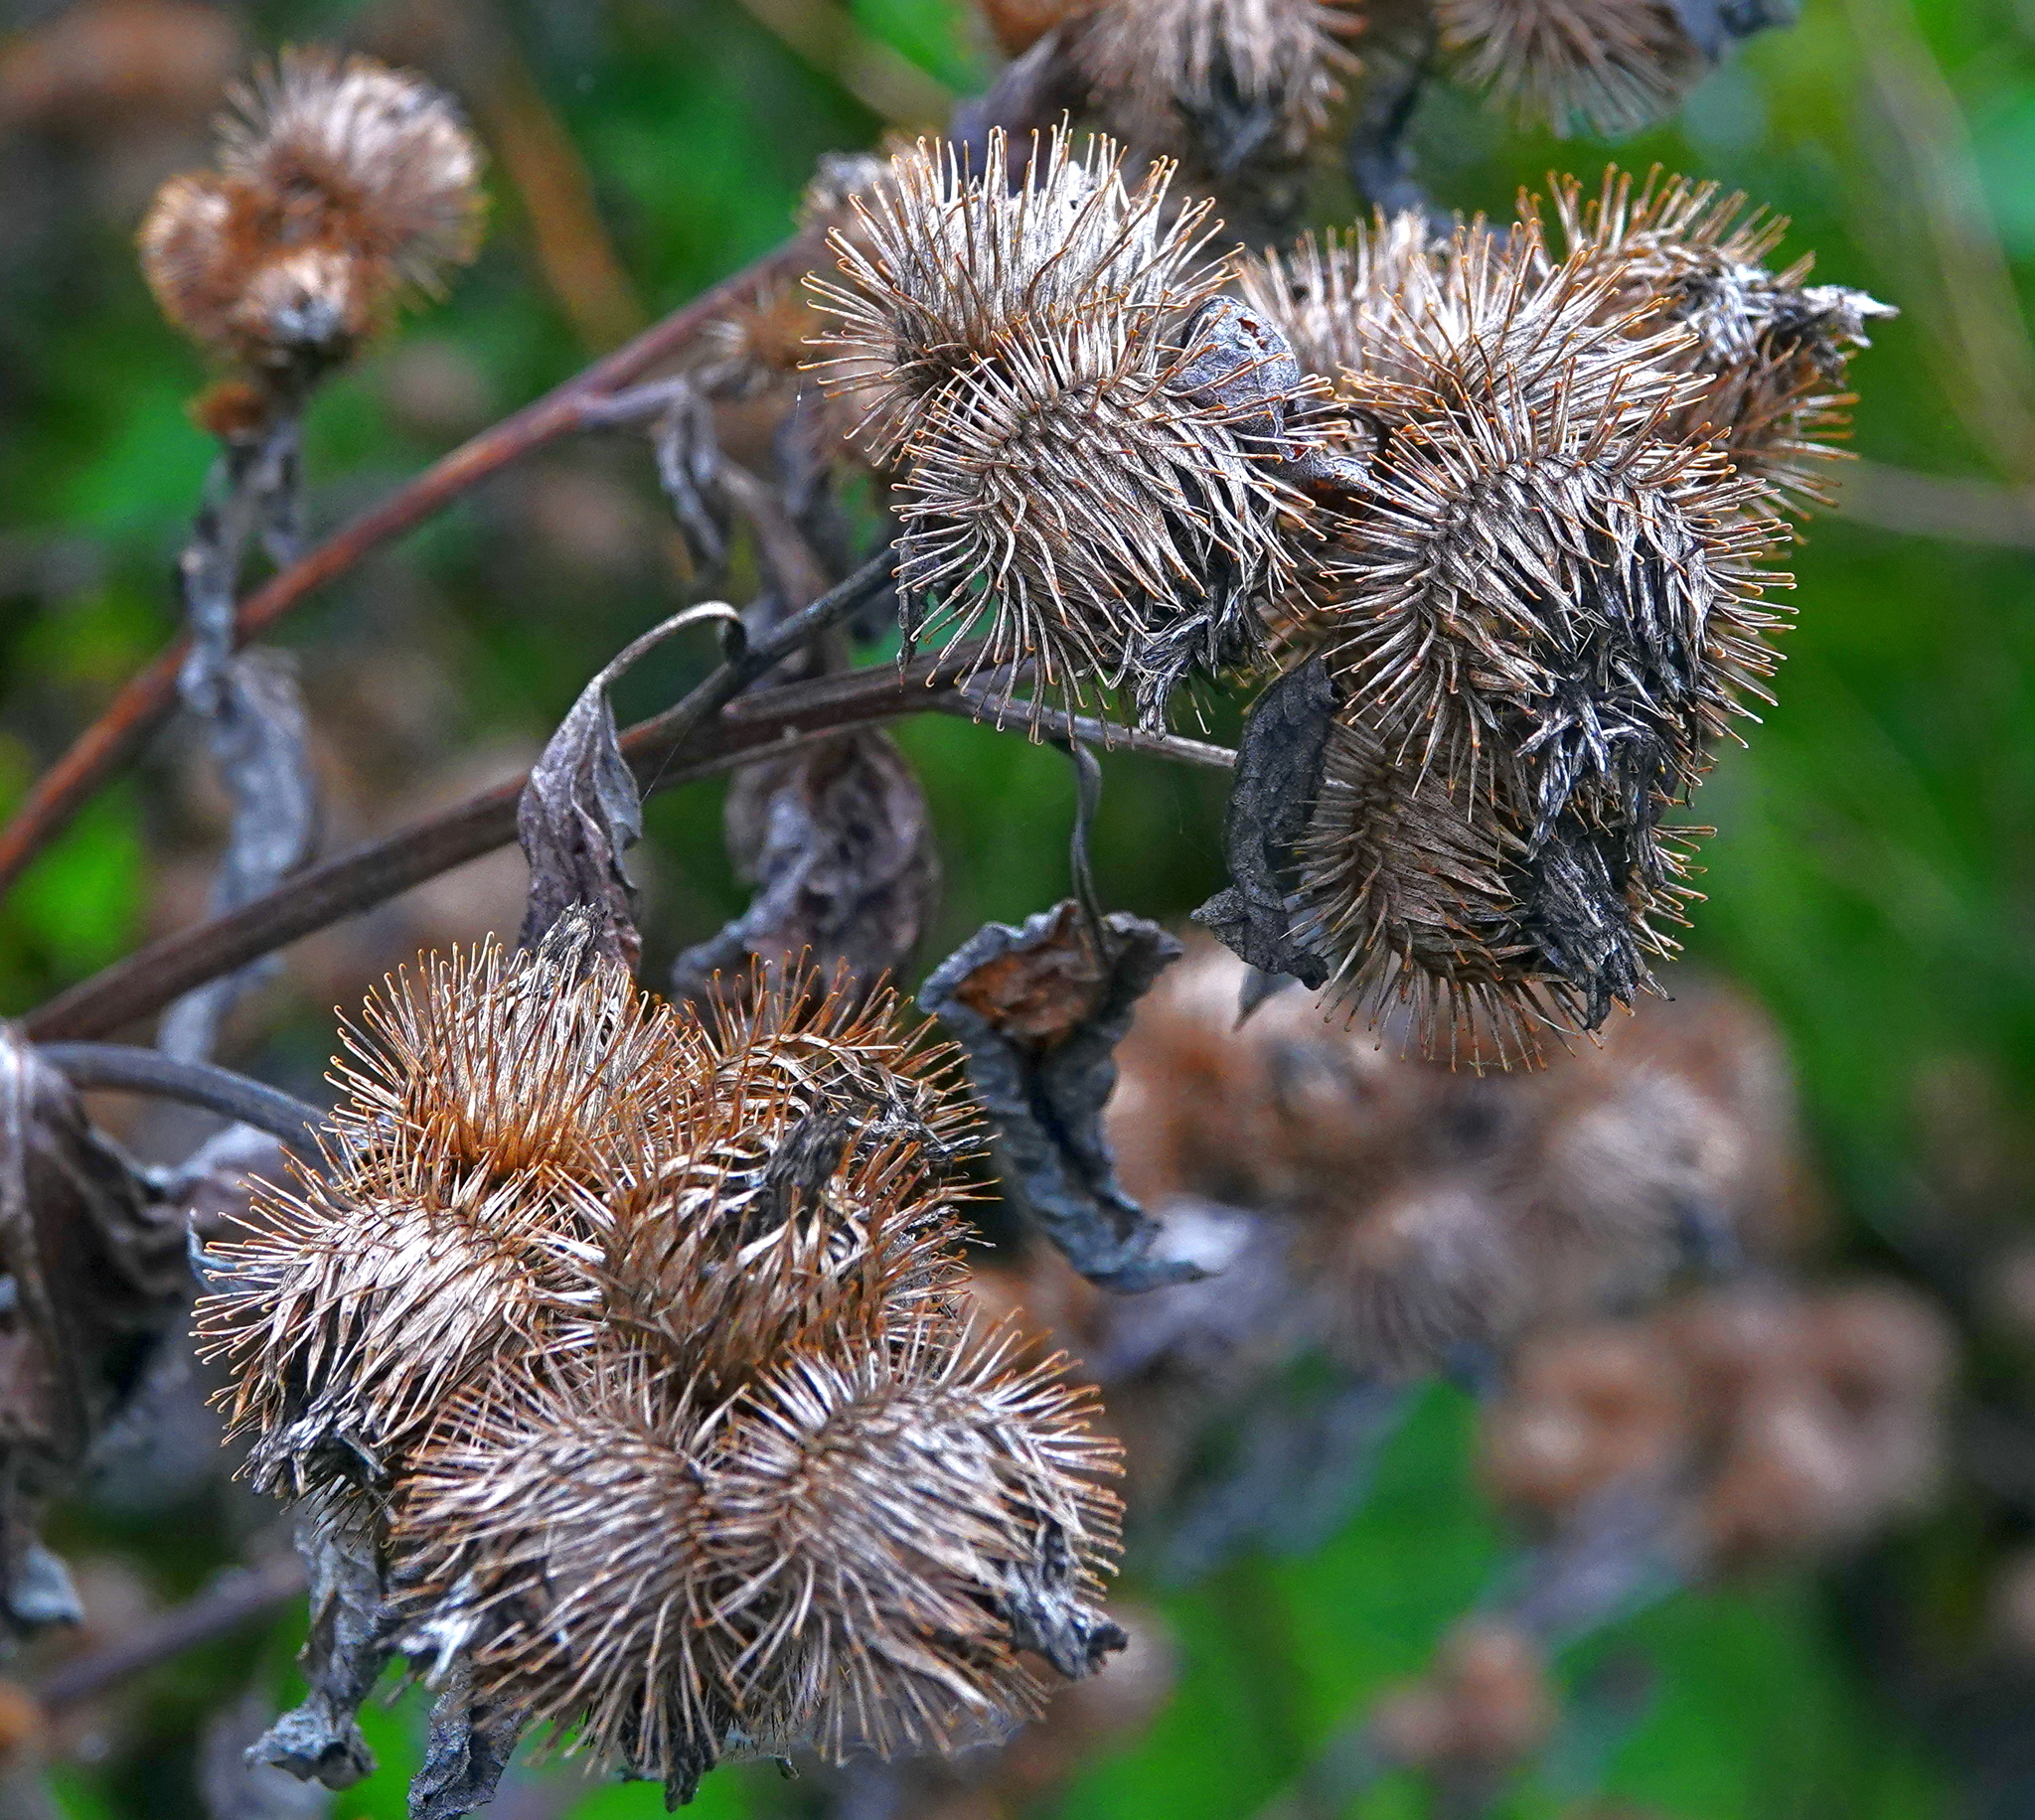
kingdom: Plantae
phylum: Tracheophyta
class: Magnoliopsida
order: Asterales
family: Asteraceae
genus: Arctium
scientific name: Arctium minus
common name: Lesser burdock
